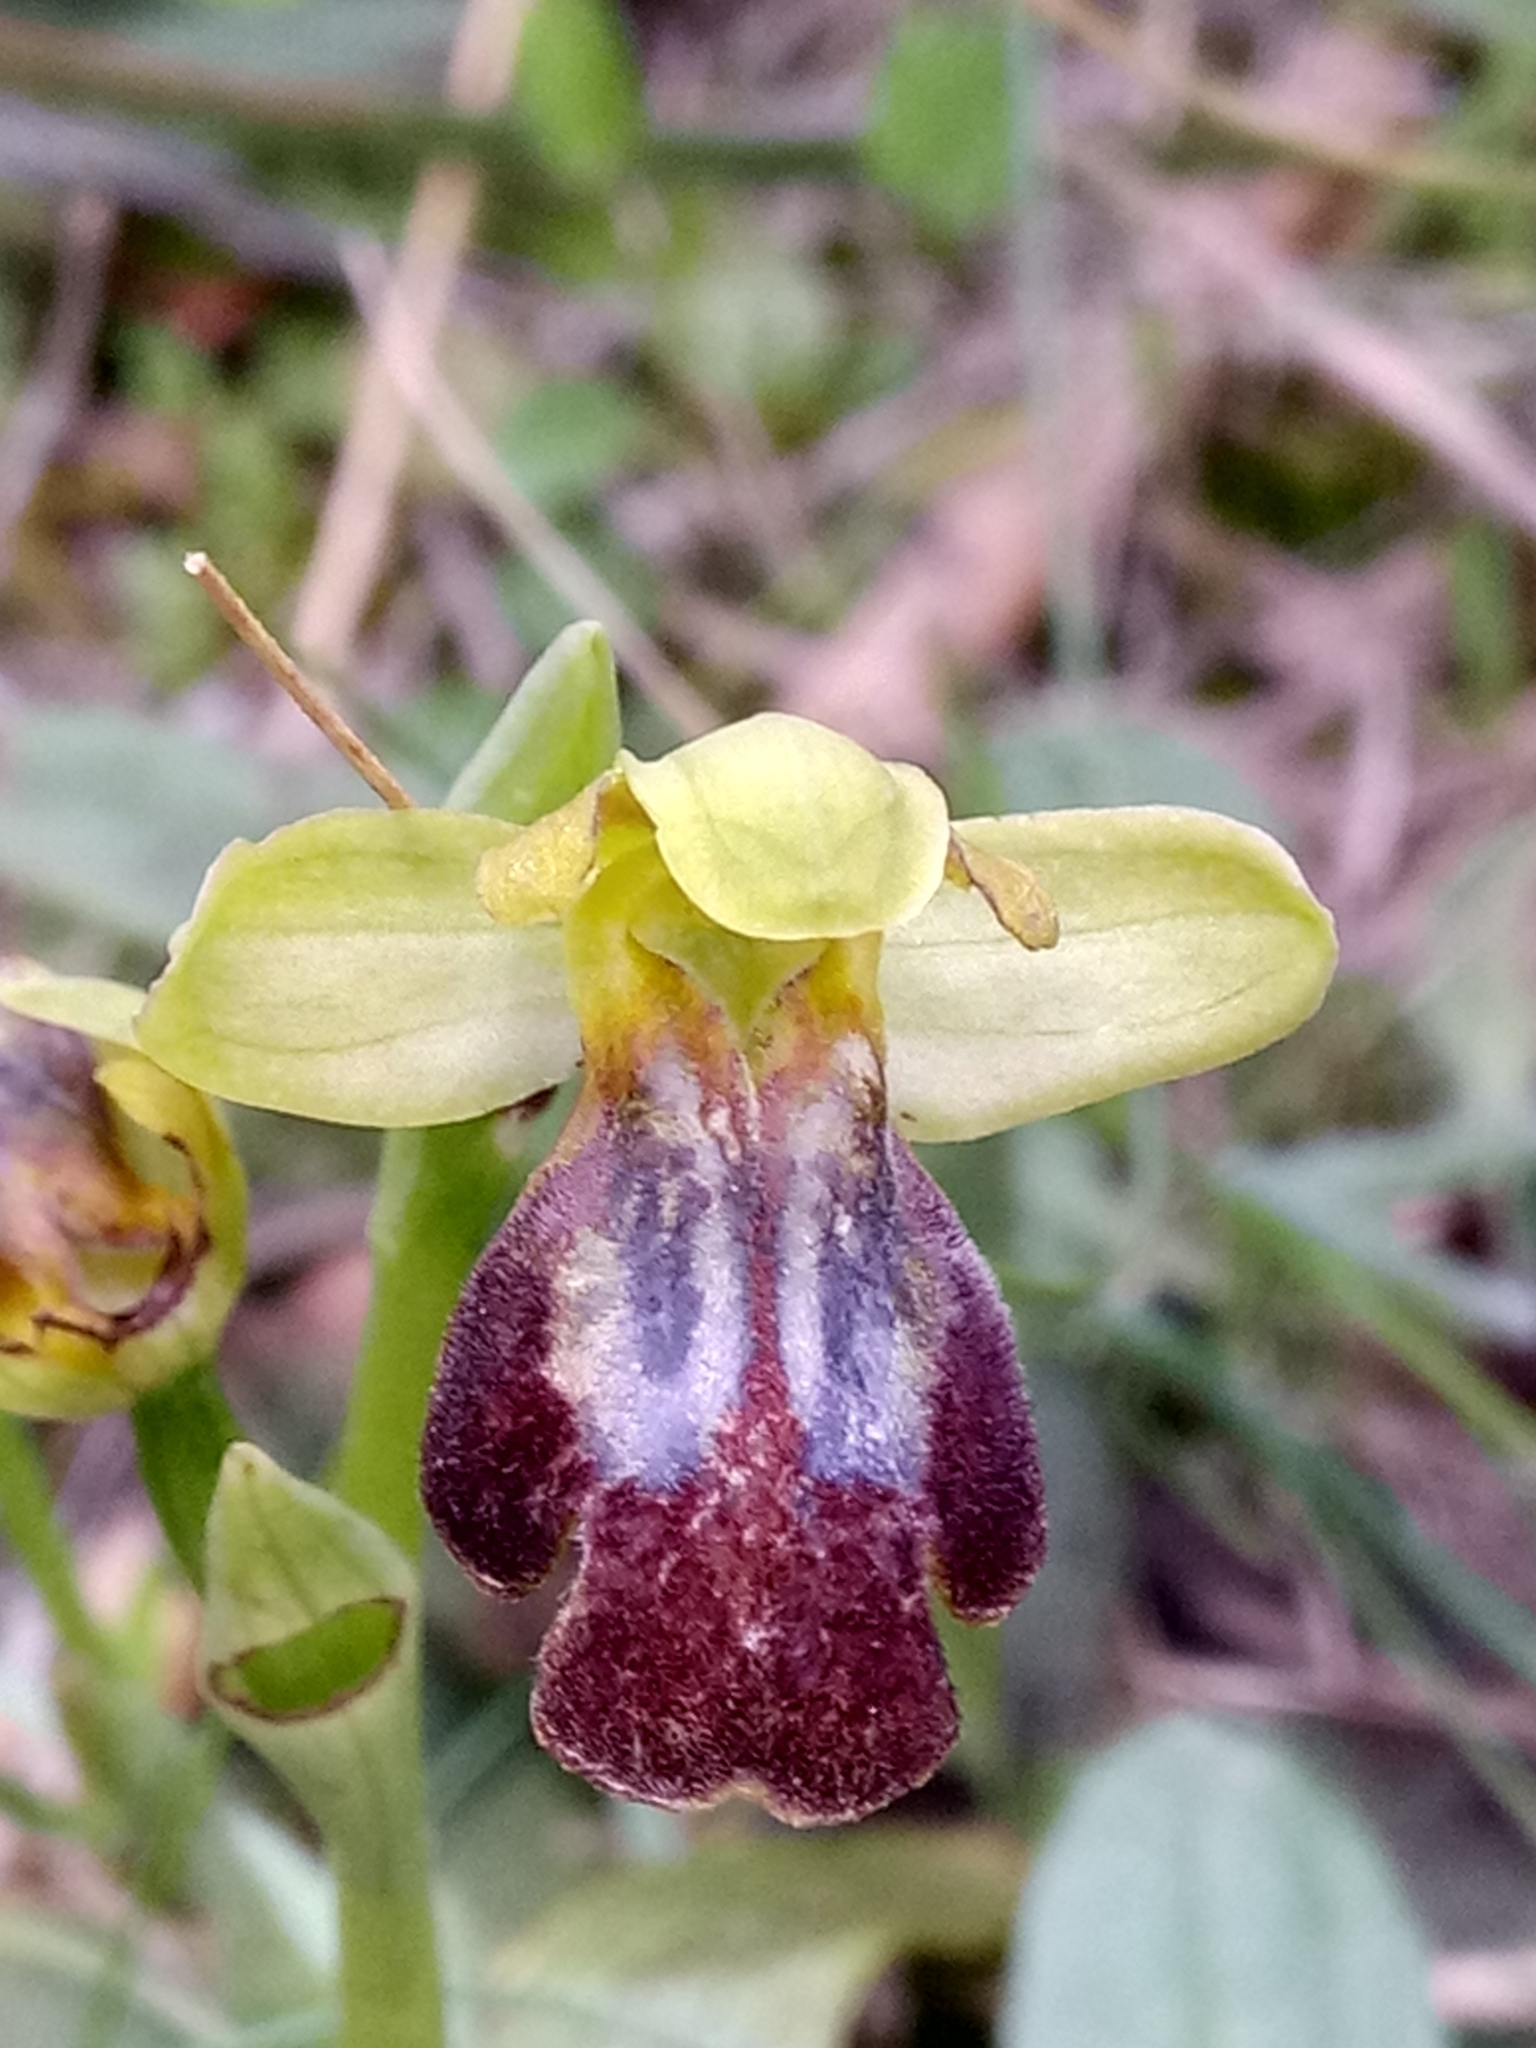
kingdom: Plantae
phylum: Tracheophyta
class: Liliopsida
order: Asparagales
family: Orchidaceae
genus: Ophrys
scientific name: Ophrys fusca
